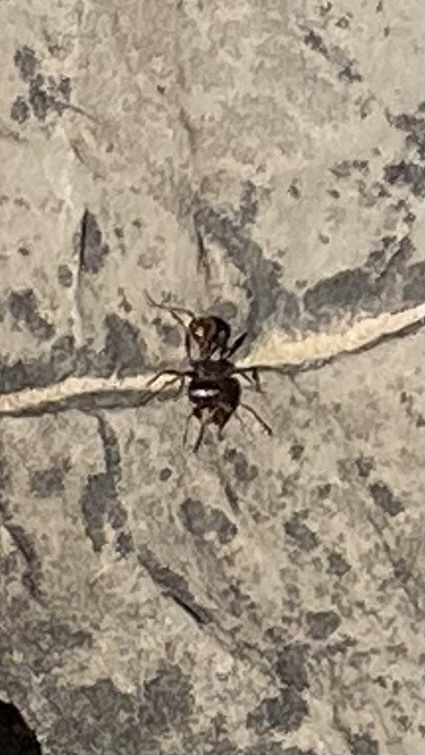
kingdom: Animalia
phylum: Arthropoda
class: Insecta
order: Hymenoptera
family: Formicidae
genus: Pogonomyrmex
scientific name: Pogonomyrmex rugosus
